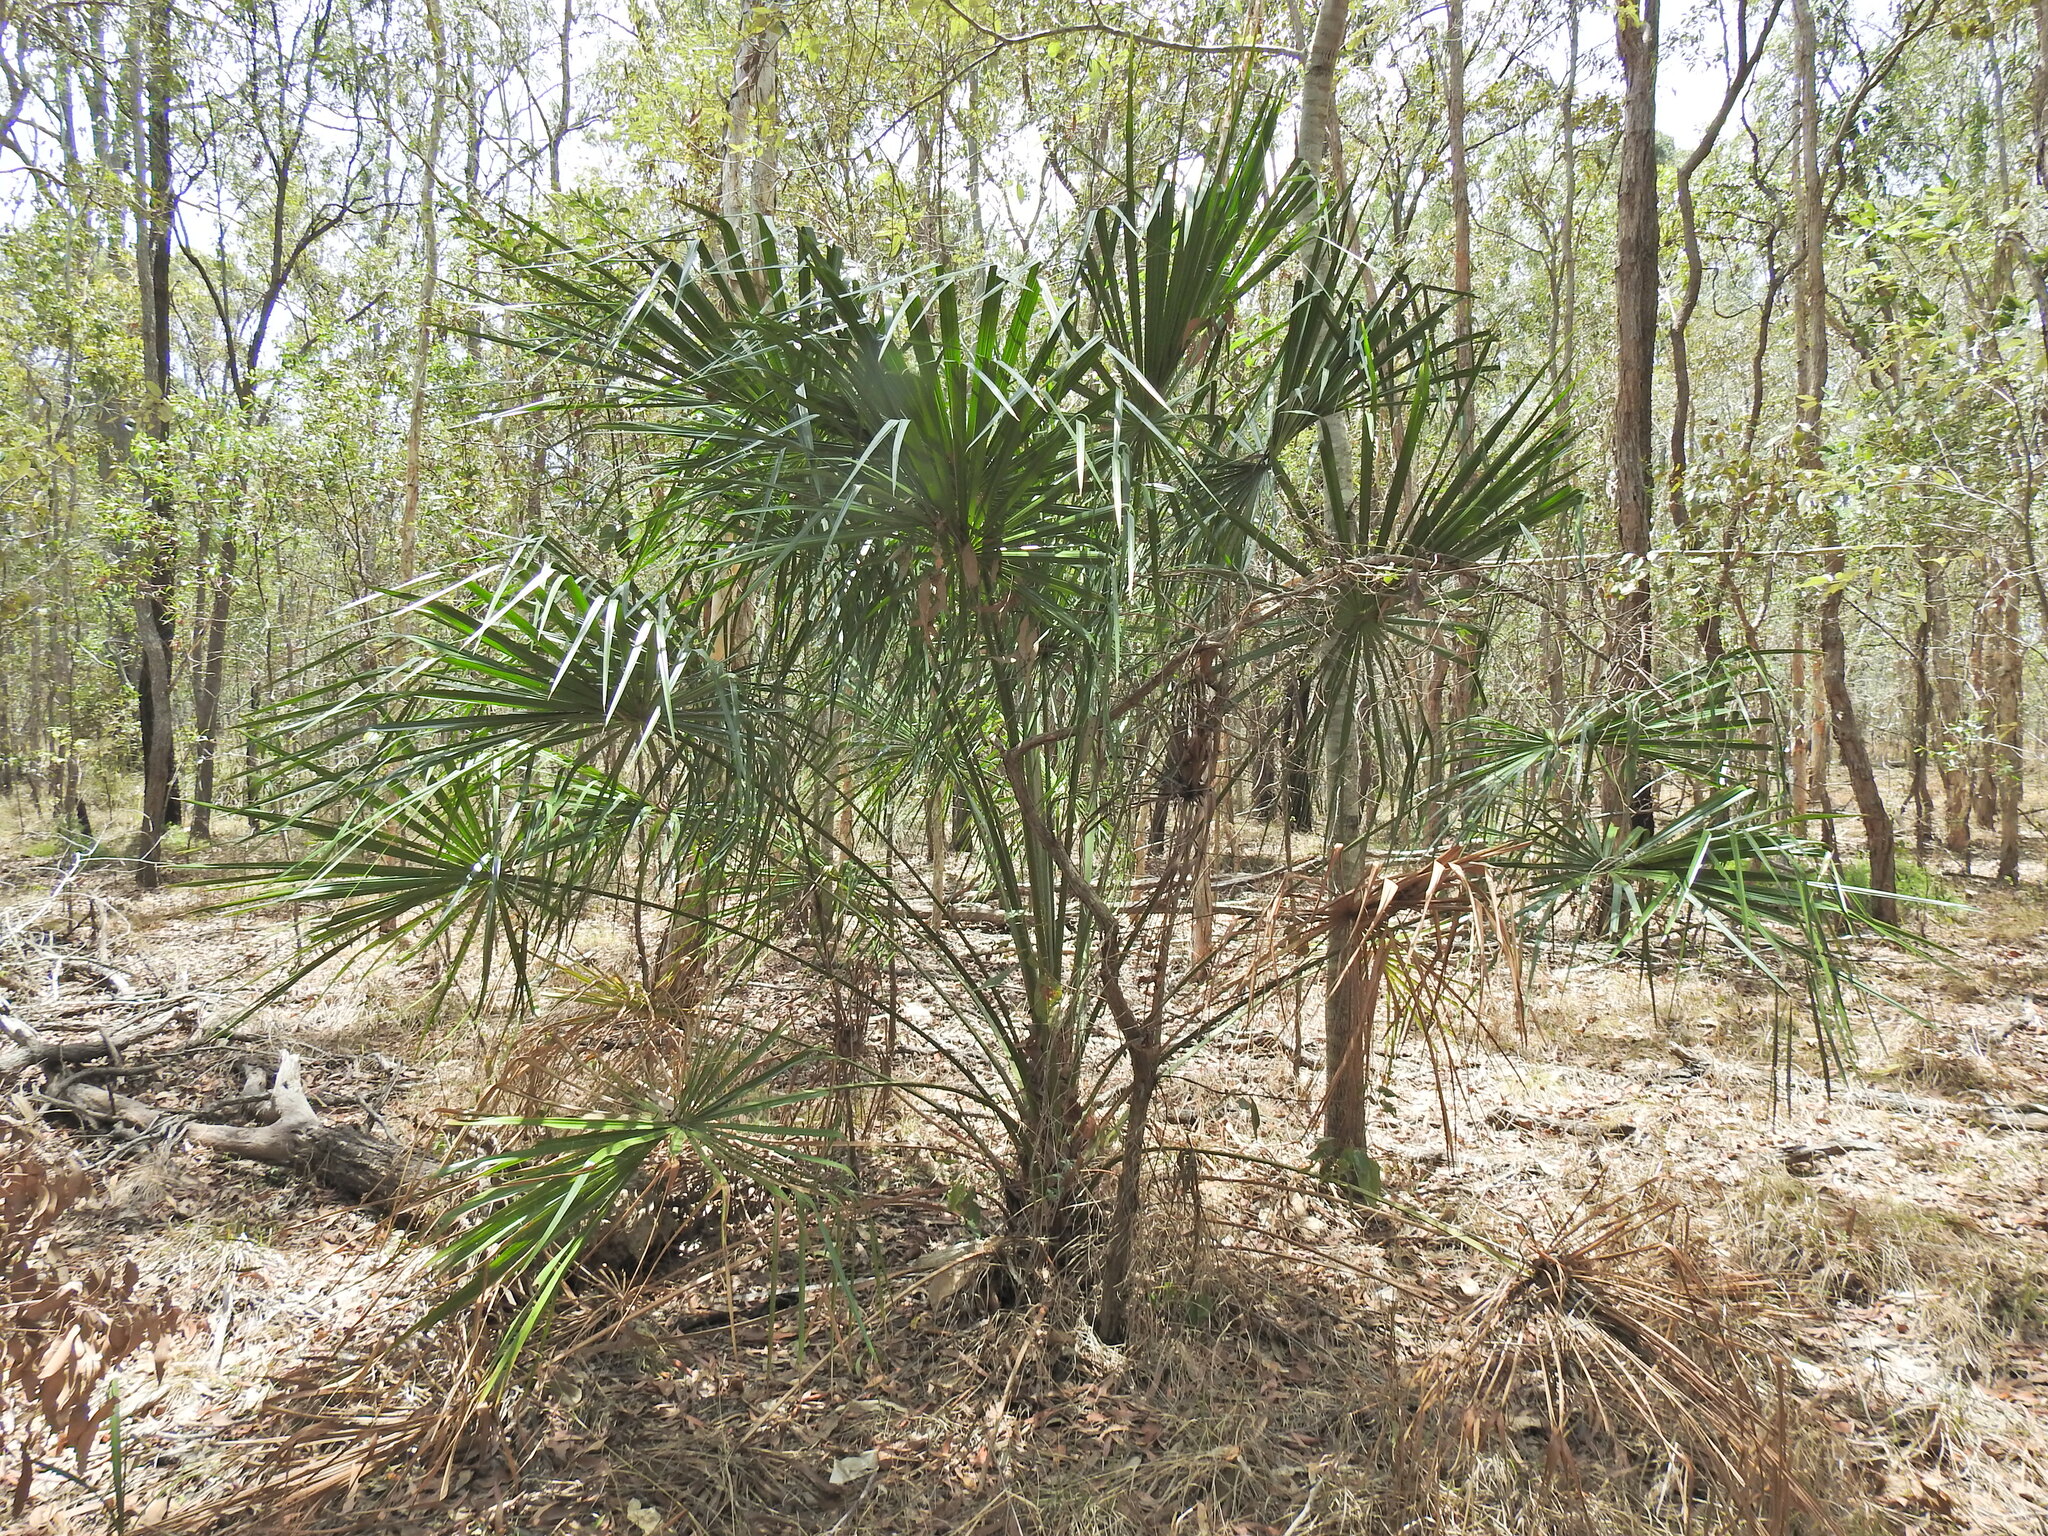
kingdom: Plantae
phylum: Tracheophyta
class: Liliopsida
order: Arecales
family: Arecaceae
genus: Livistona
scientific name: Livistona decora
